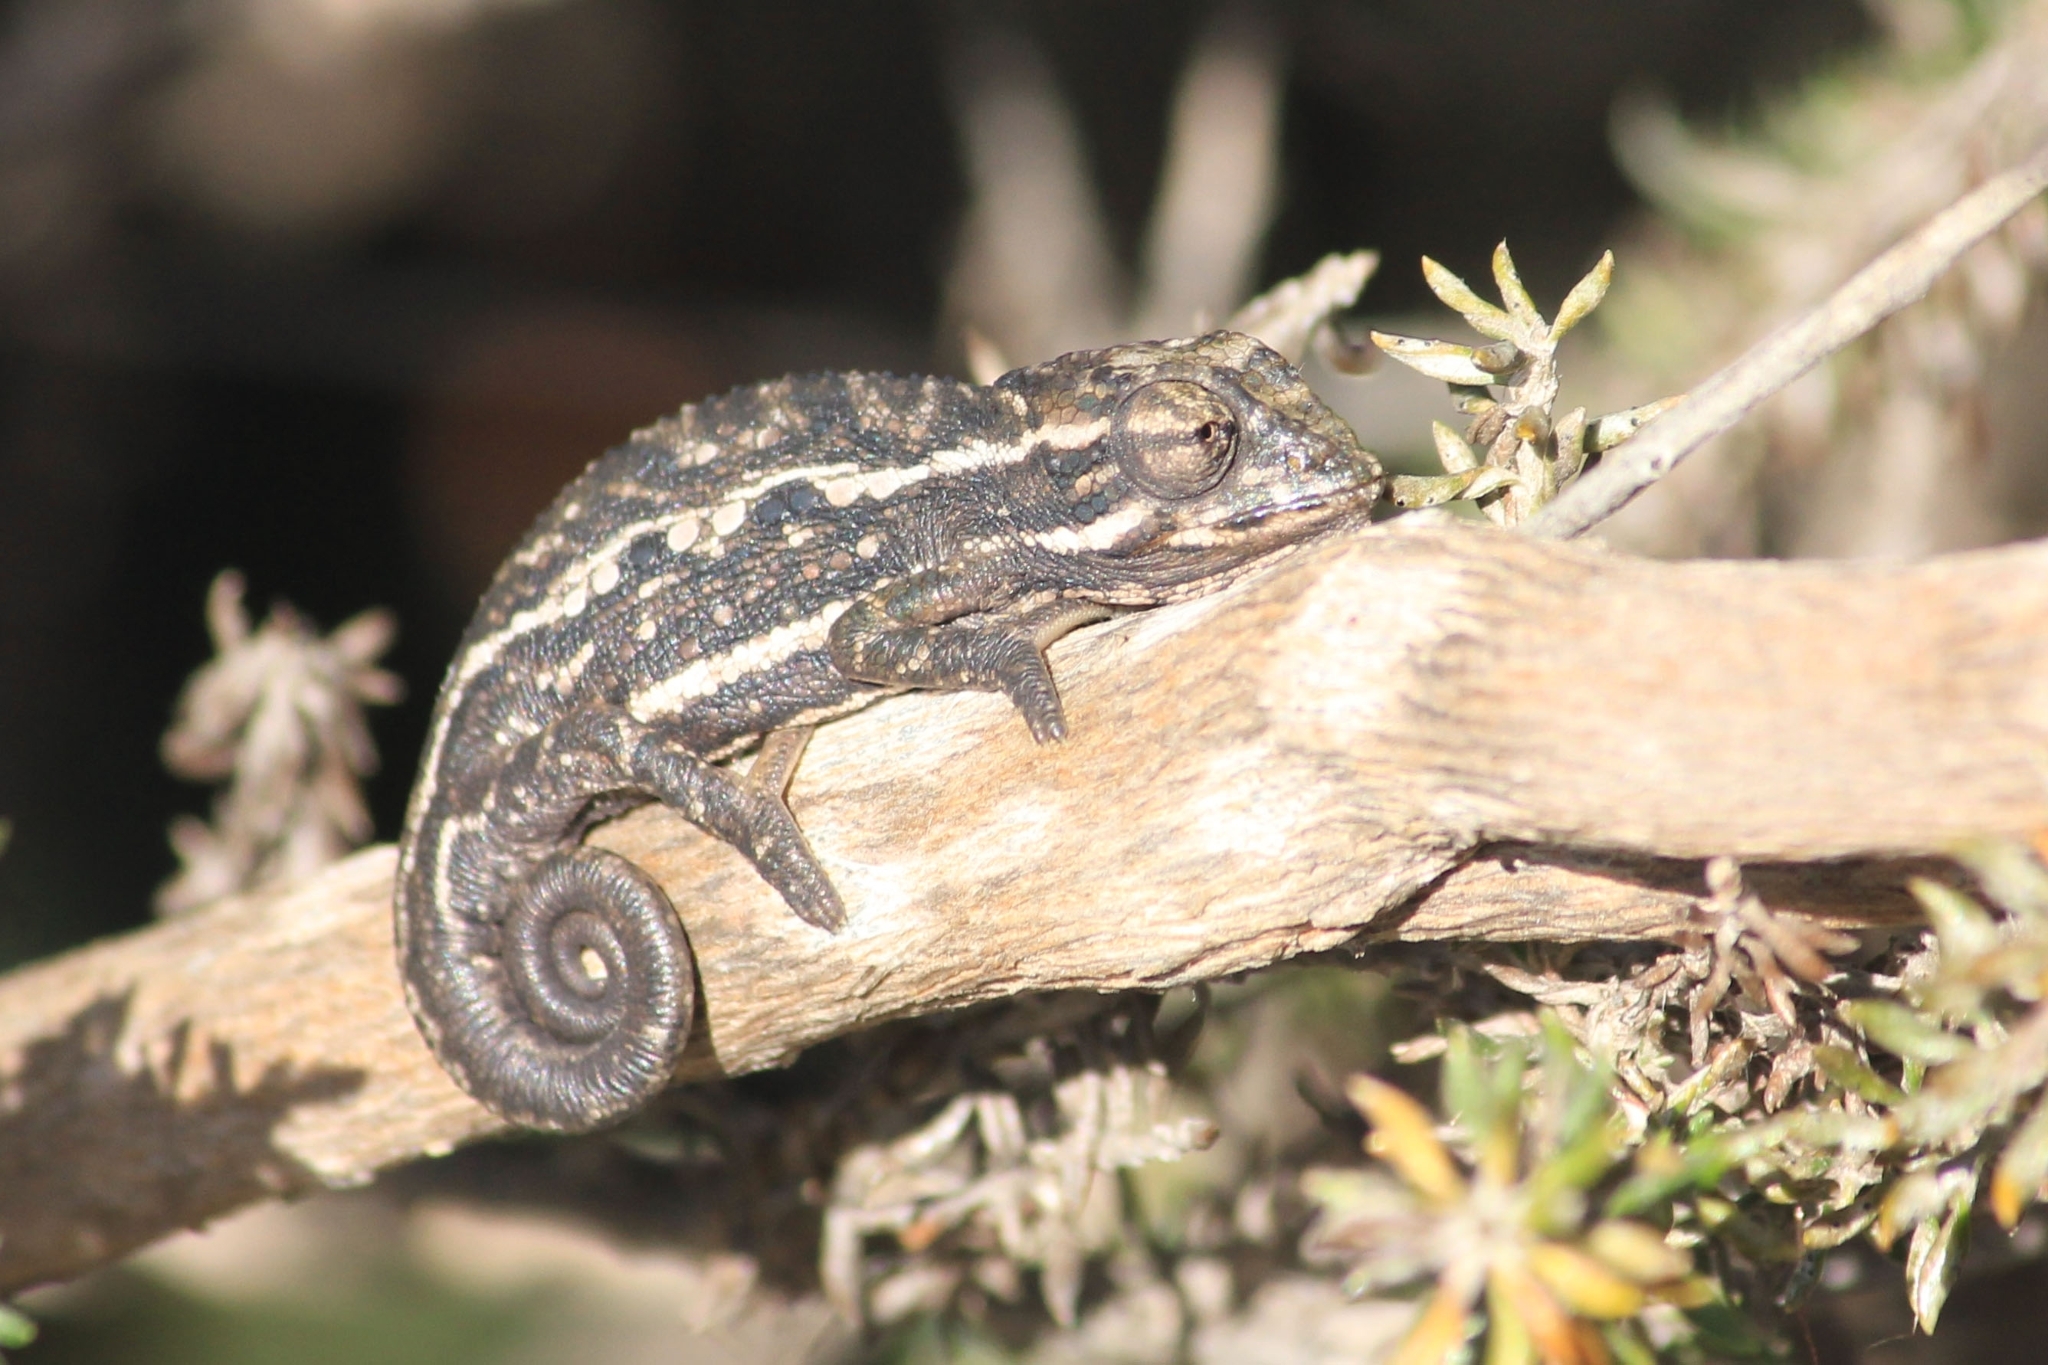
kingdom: Animalia
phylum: Chordata
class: Squamata
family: Chamaeleonidae
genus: Bradypodion
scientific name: Bradypodion pumilum
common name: Cape dwarf chameleon
